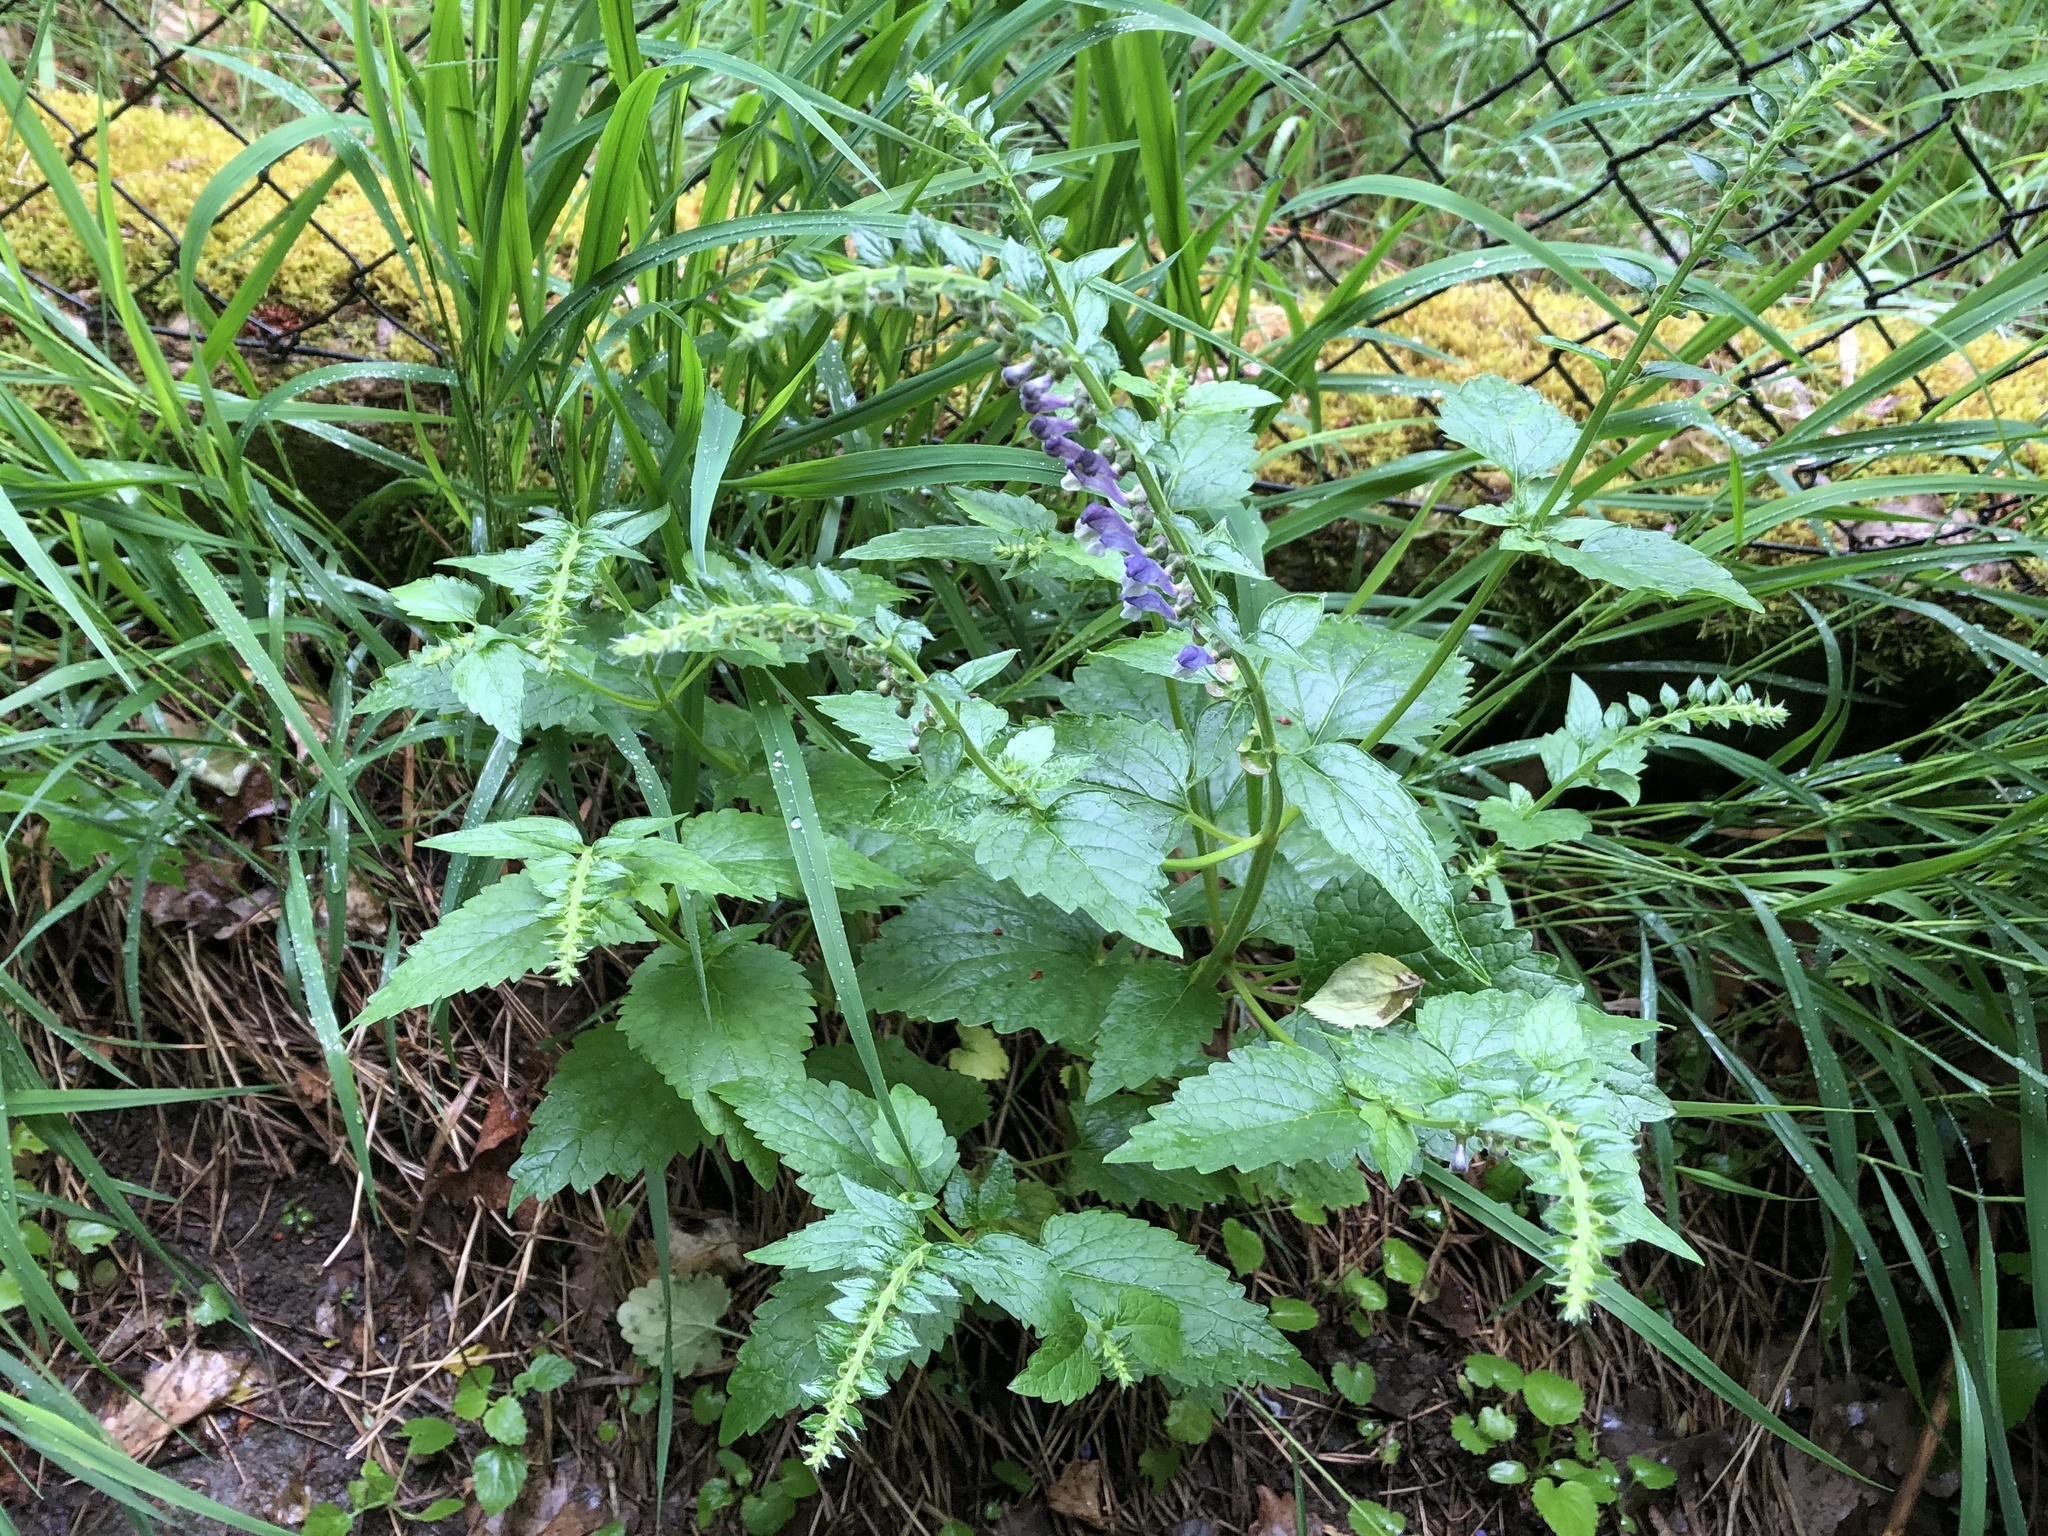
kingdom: Plantae
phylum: Tracheophyta
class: Magnoliopsida
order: Lamiales
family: Lamiaceae
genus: Scutellaria
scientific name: Scutellaria altissima
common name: Somerset skullcap
